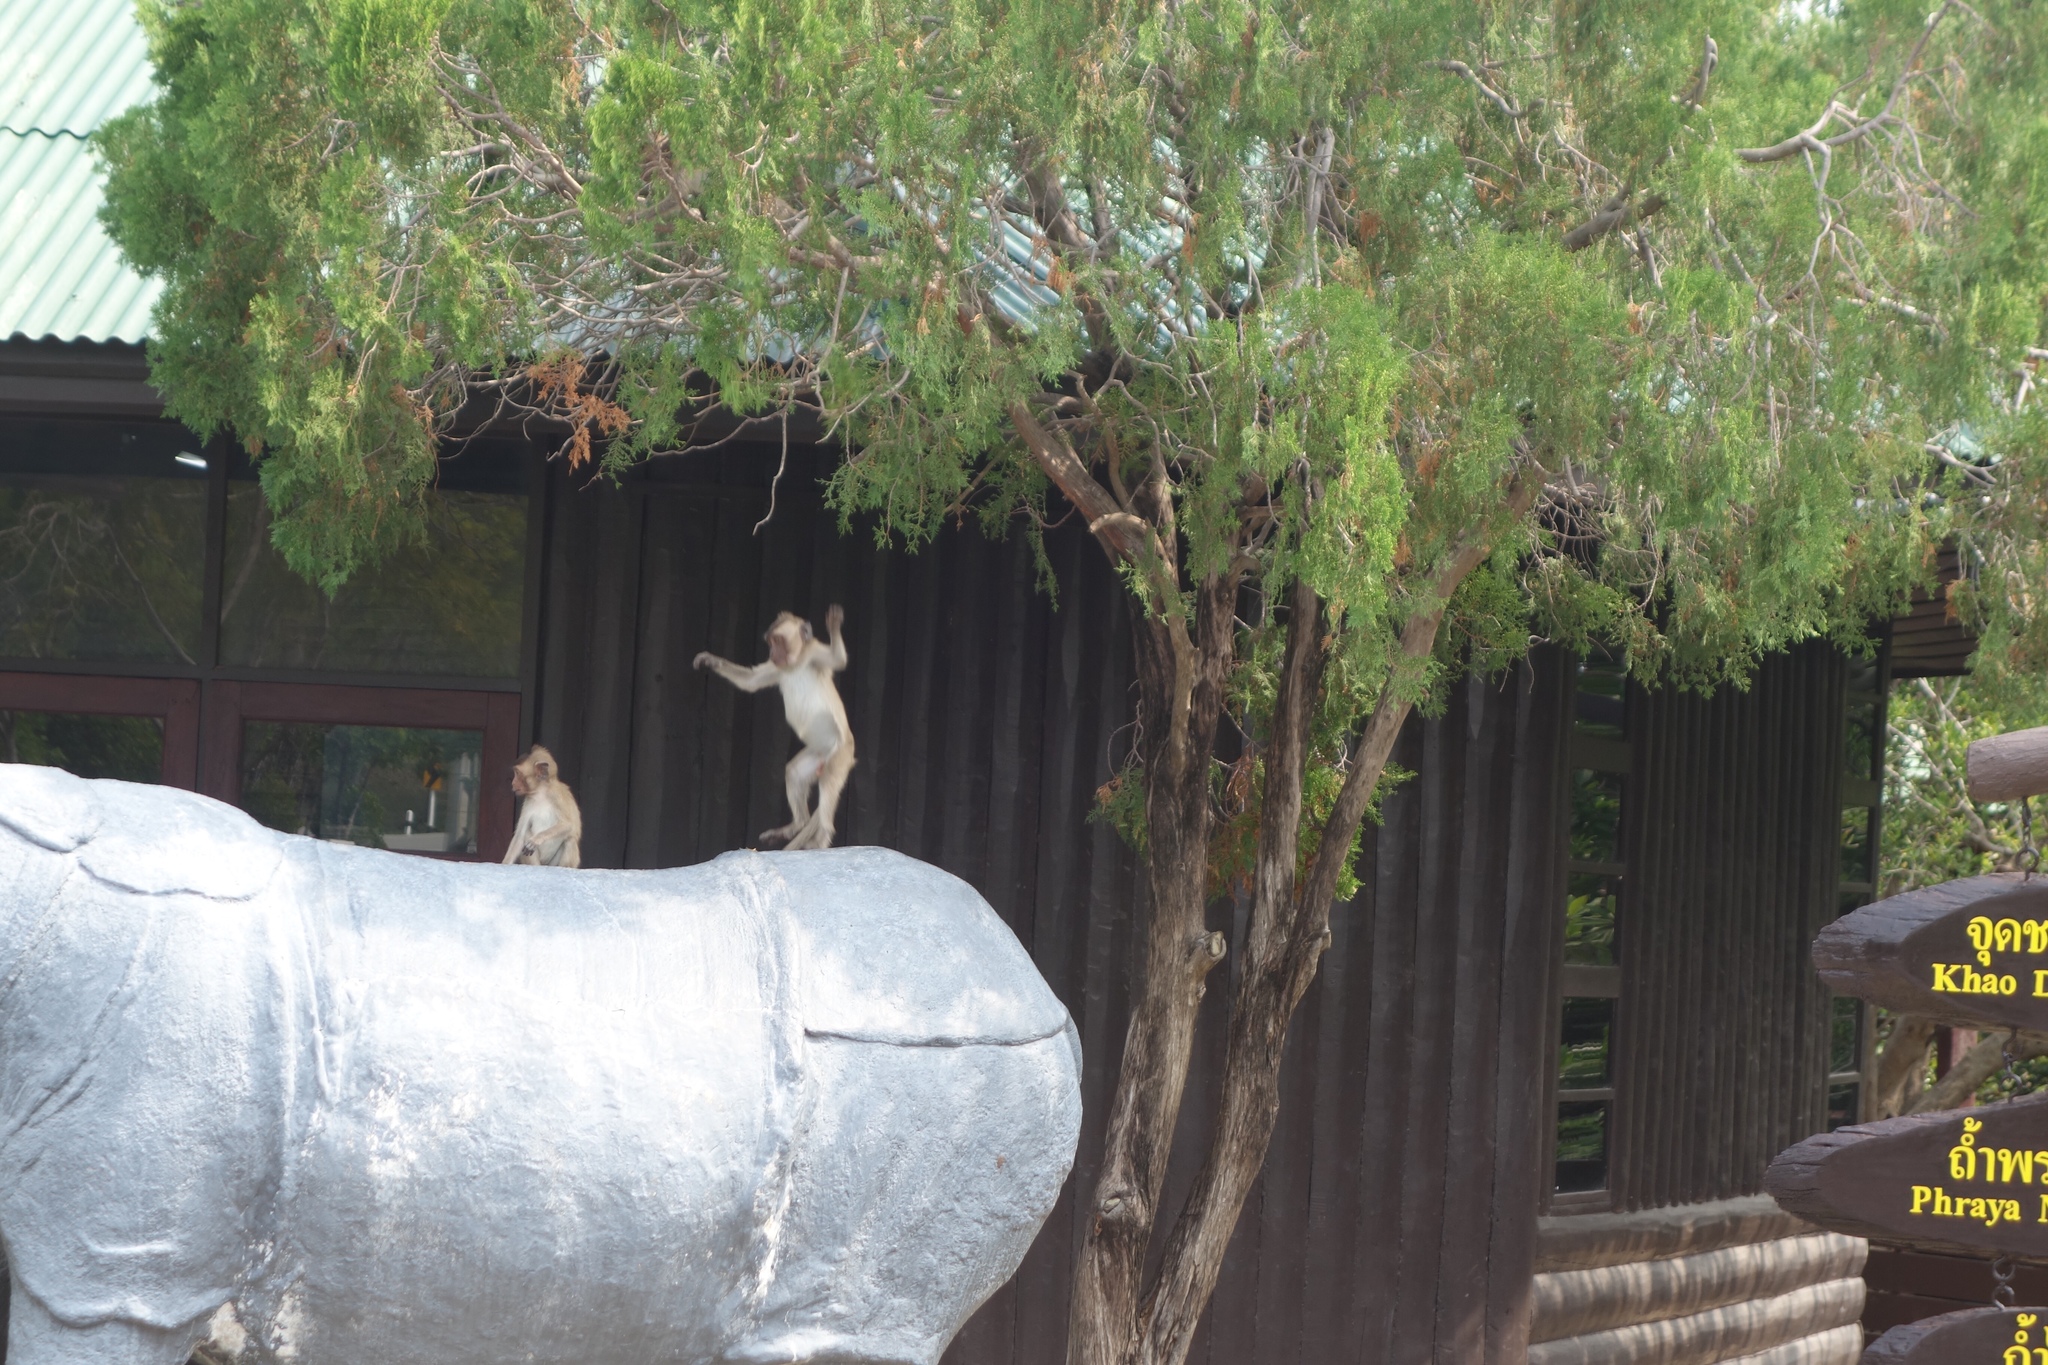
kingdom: Animalia
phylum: Chordata
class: Mammalia
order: Primates
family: Cercopithecidae
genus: Macaca
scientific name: Macaca fascicularis
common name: Crab-eating macaque
